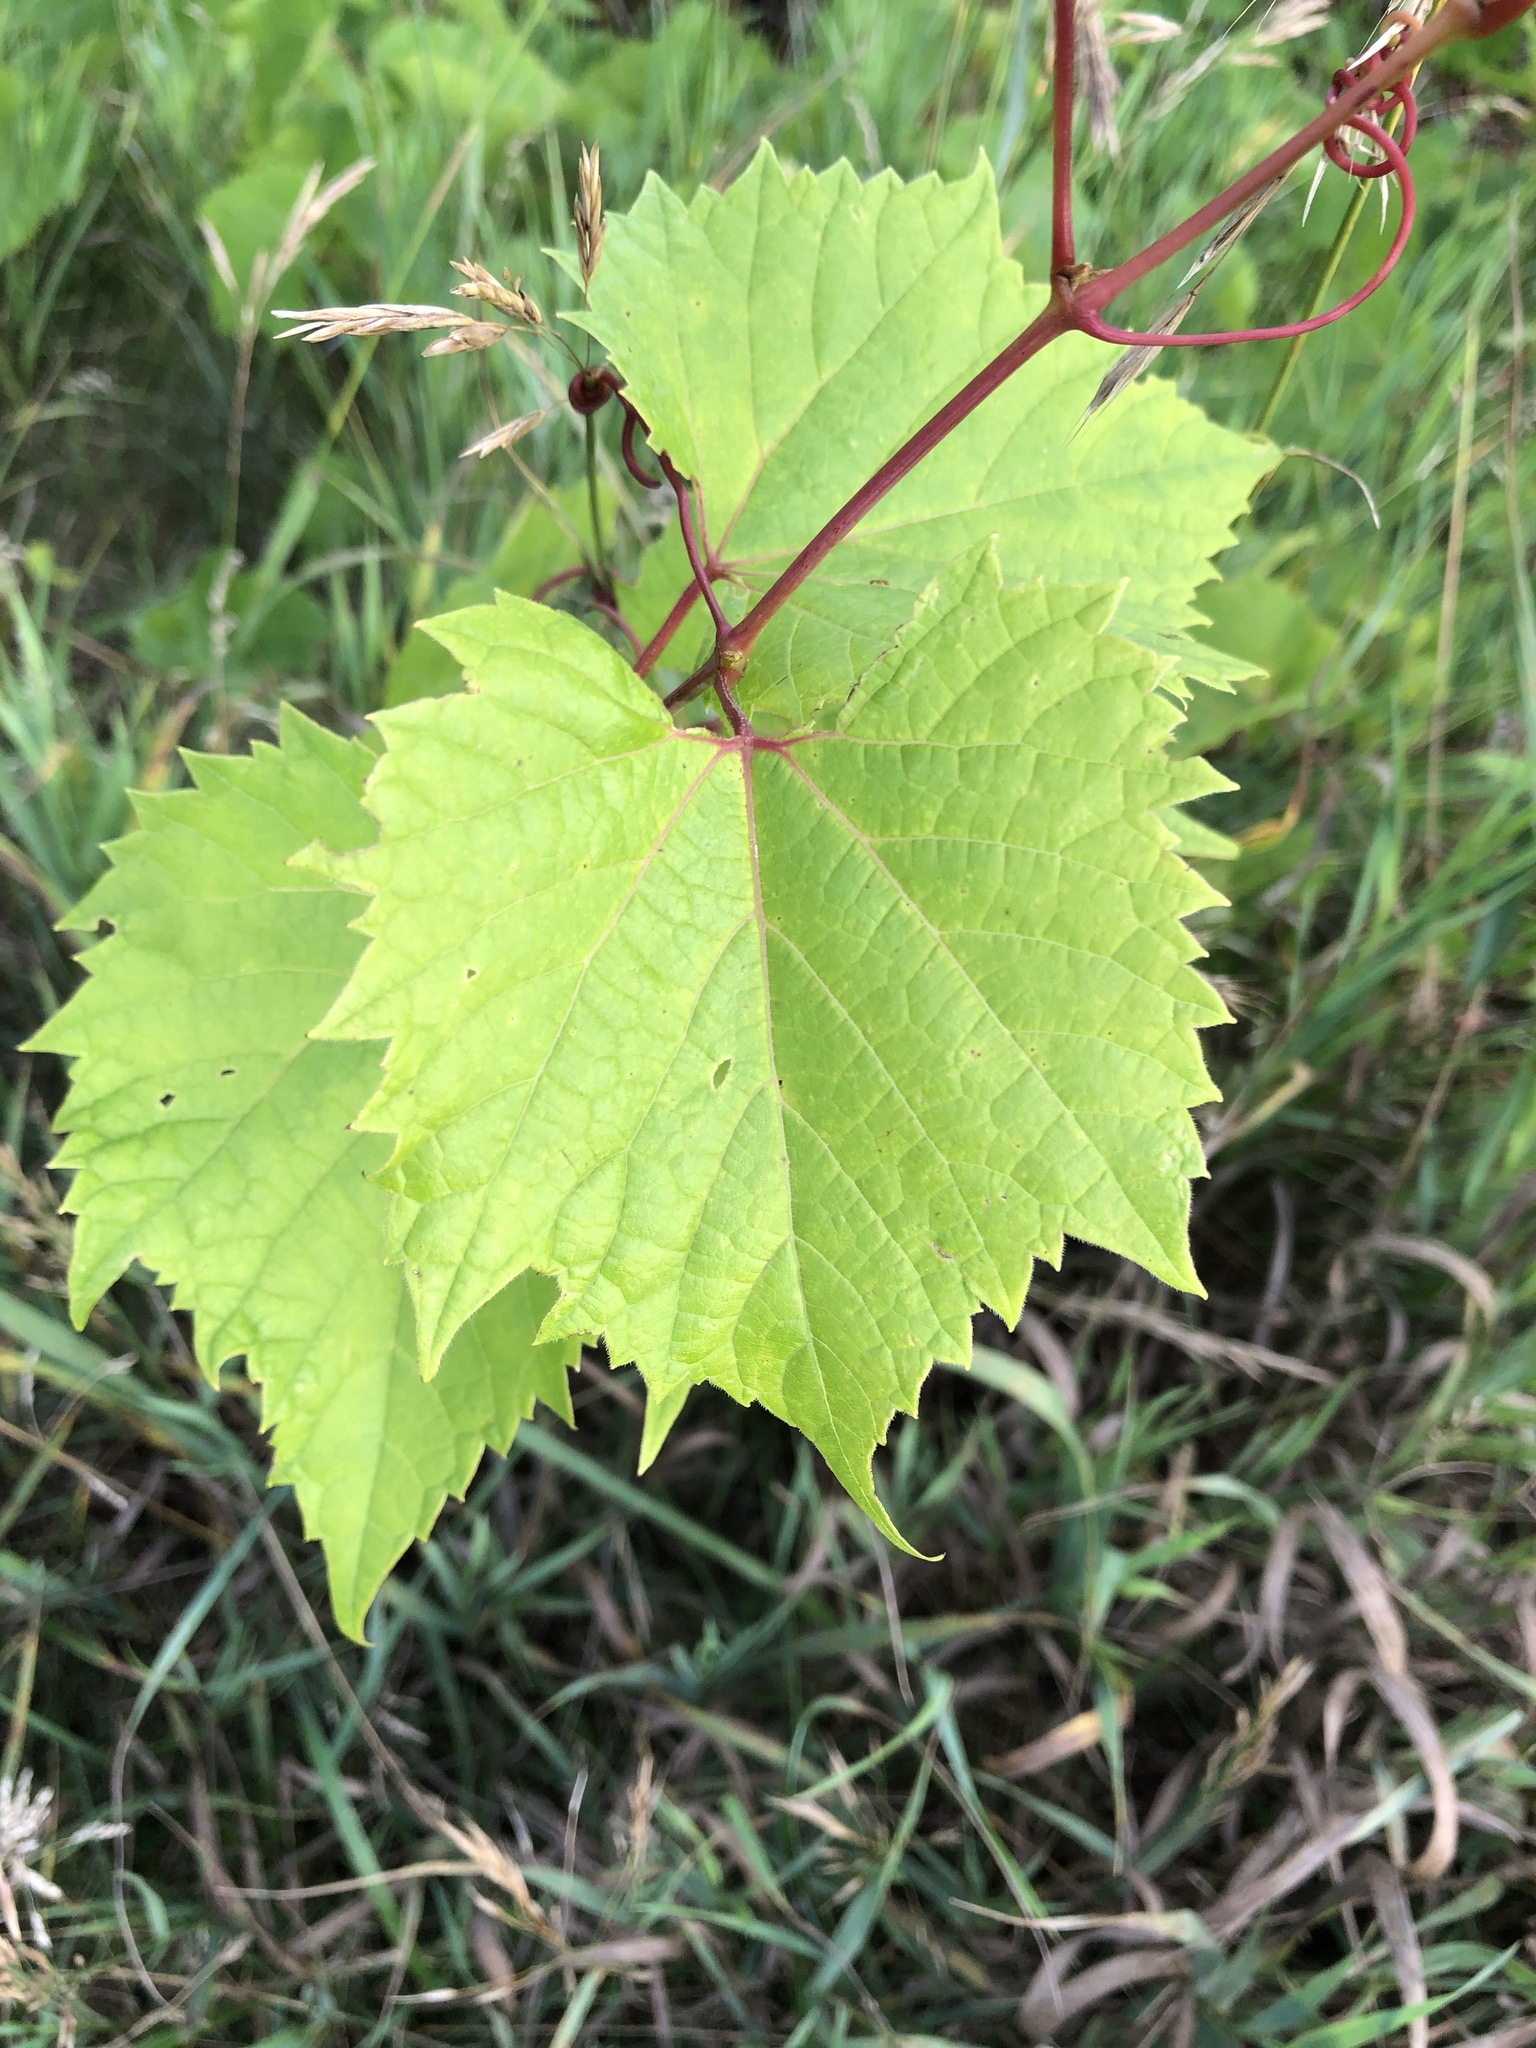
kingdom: Plantae
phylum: Tracheophyta
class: Magnoliopsida
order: Vitales
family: Vitaceae
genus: Vitis
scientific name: Vitis riparia
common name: Frost grape
